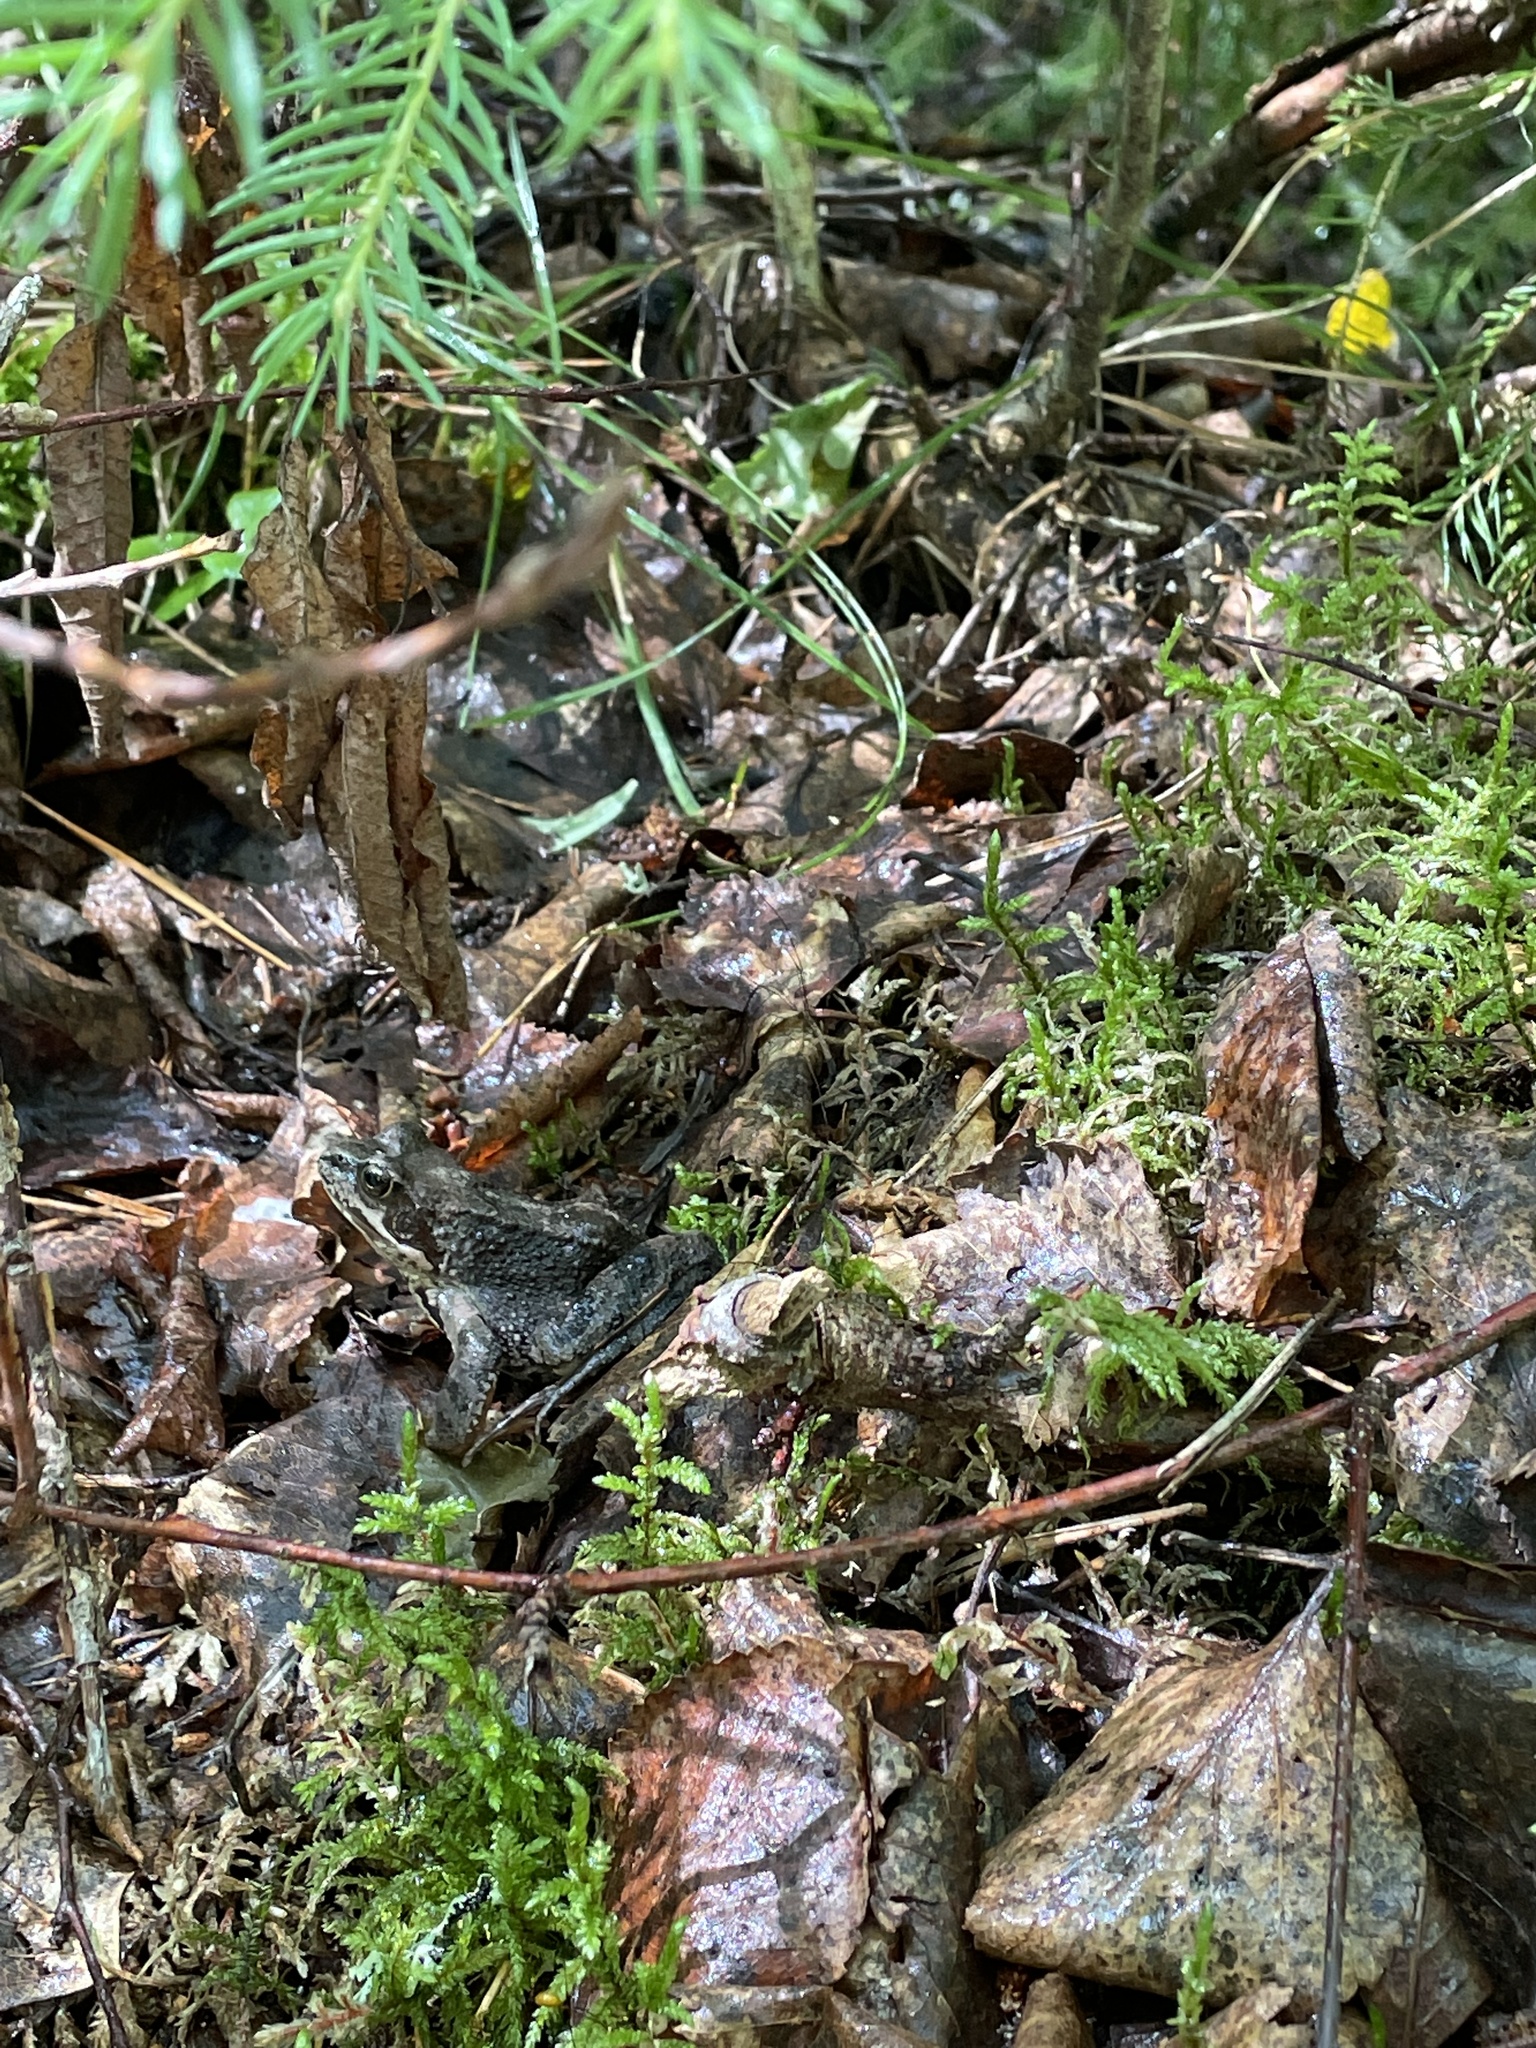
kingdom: Animalia
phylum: Chordata
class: Amphibia
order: Anura
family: Ranidae
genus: Rana
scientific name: Rana temporaria
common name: Common frog
